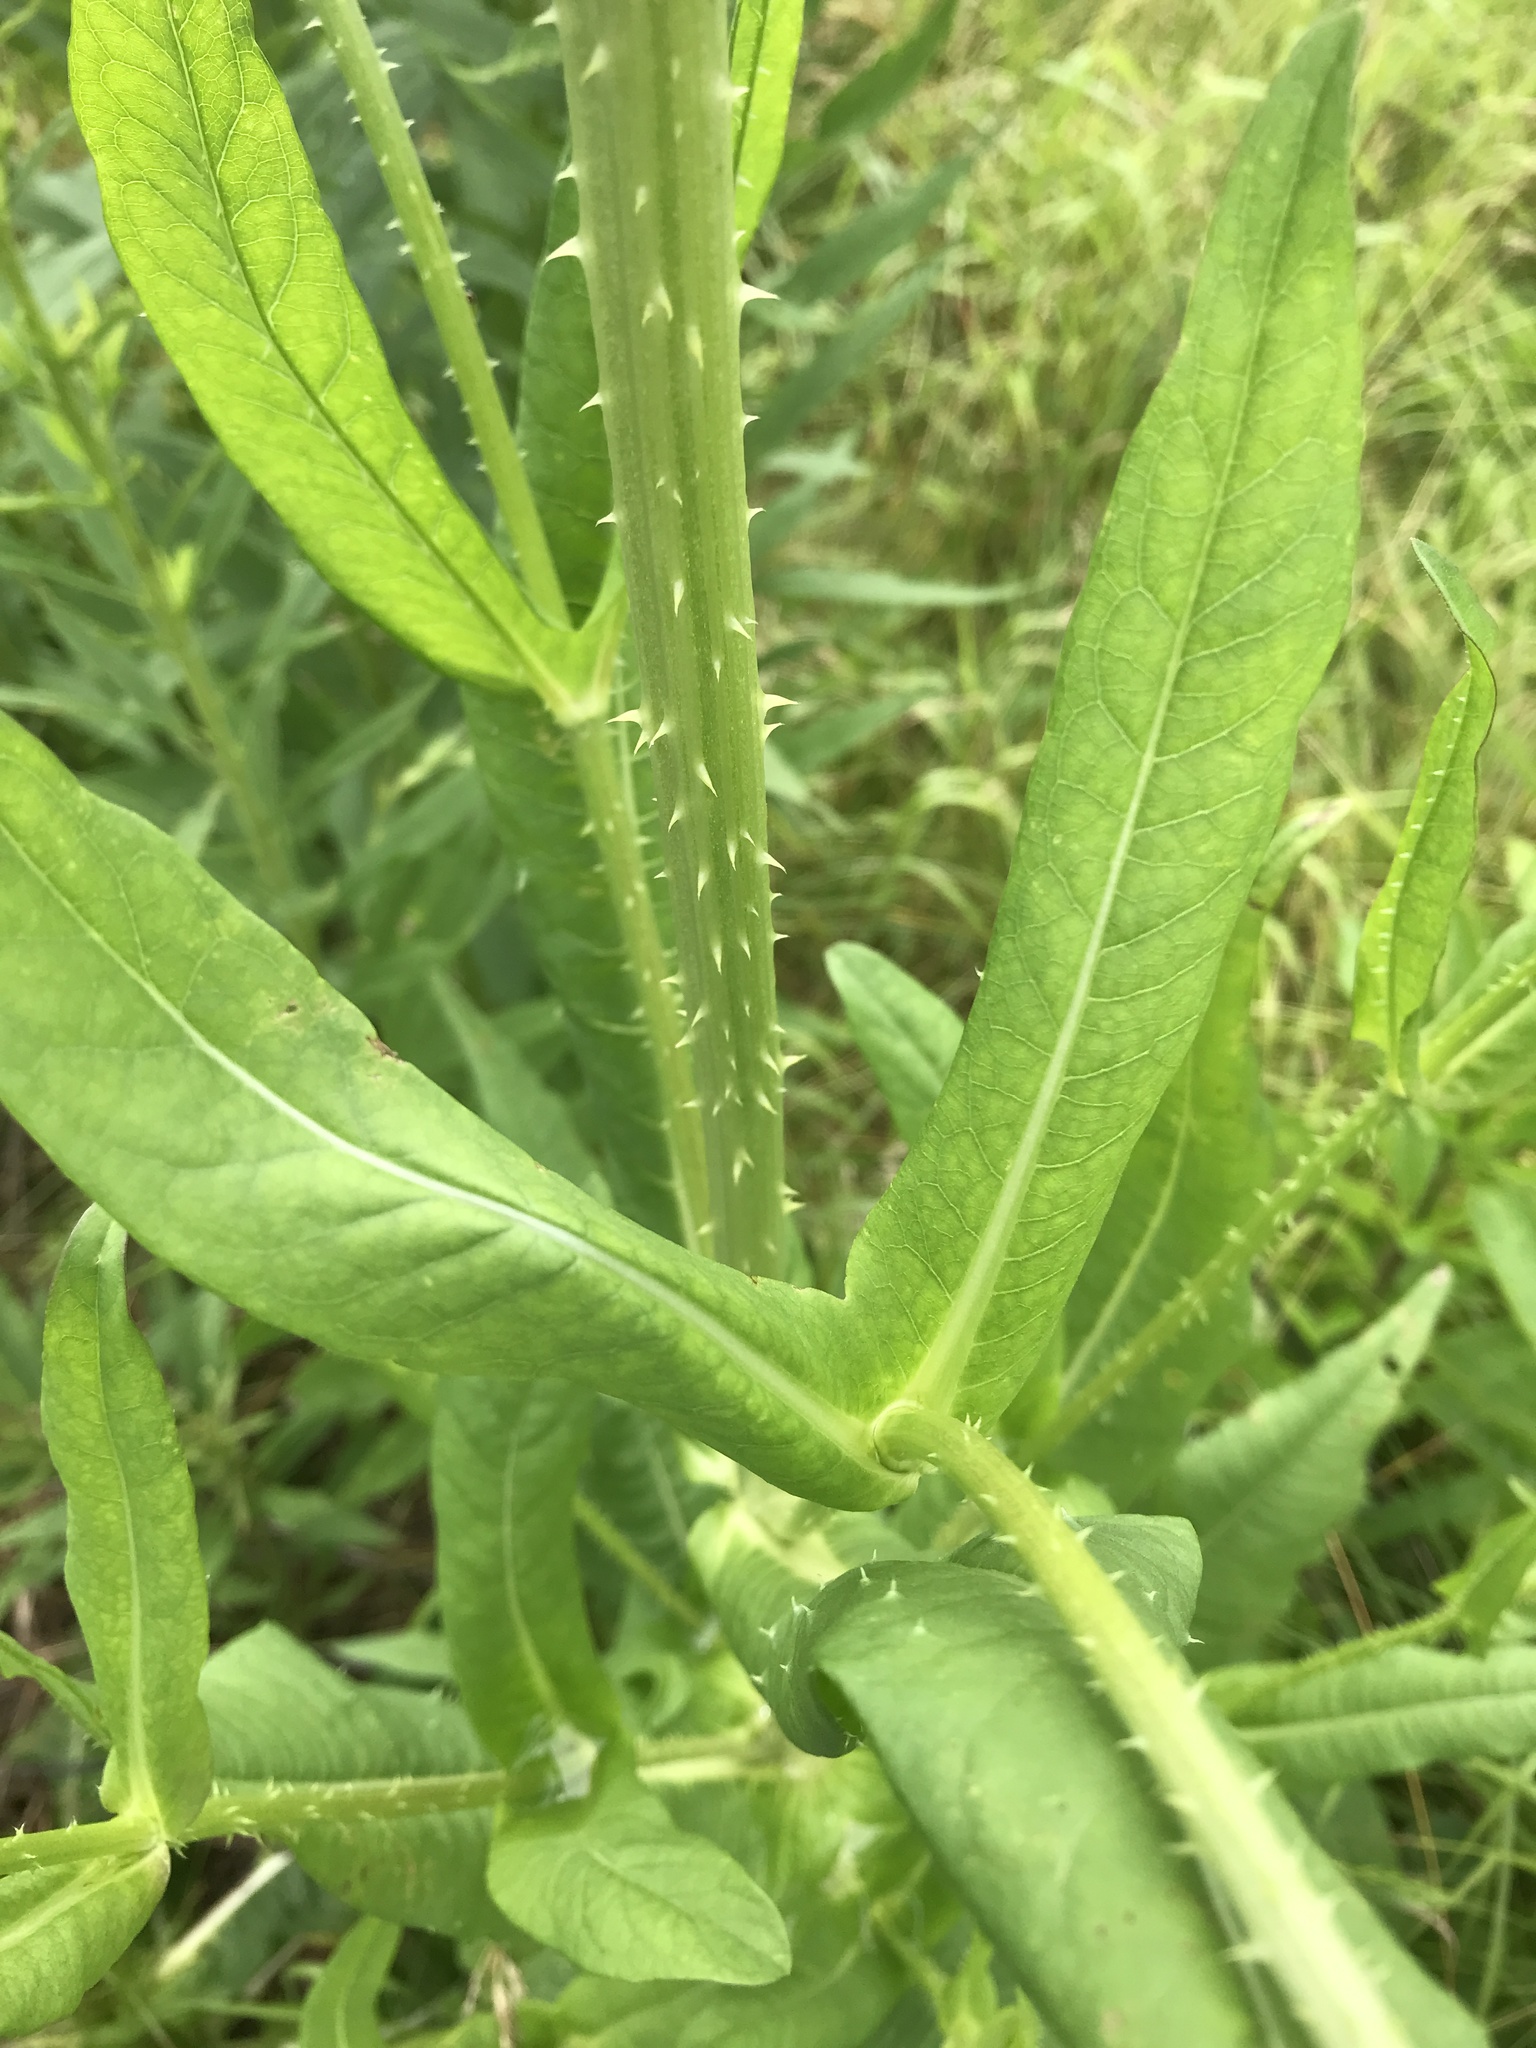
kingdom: Plantae
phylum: Tracheophyta
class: Magnoliopsida
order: Dipsacales
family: Caprifoliaceae
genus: Dipsacus
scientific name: Dipsacus fullonum
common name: Teasel
